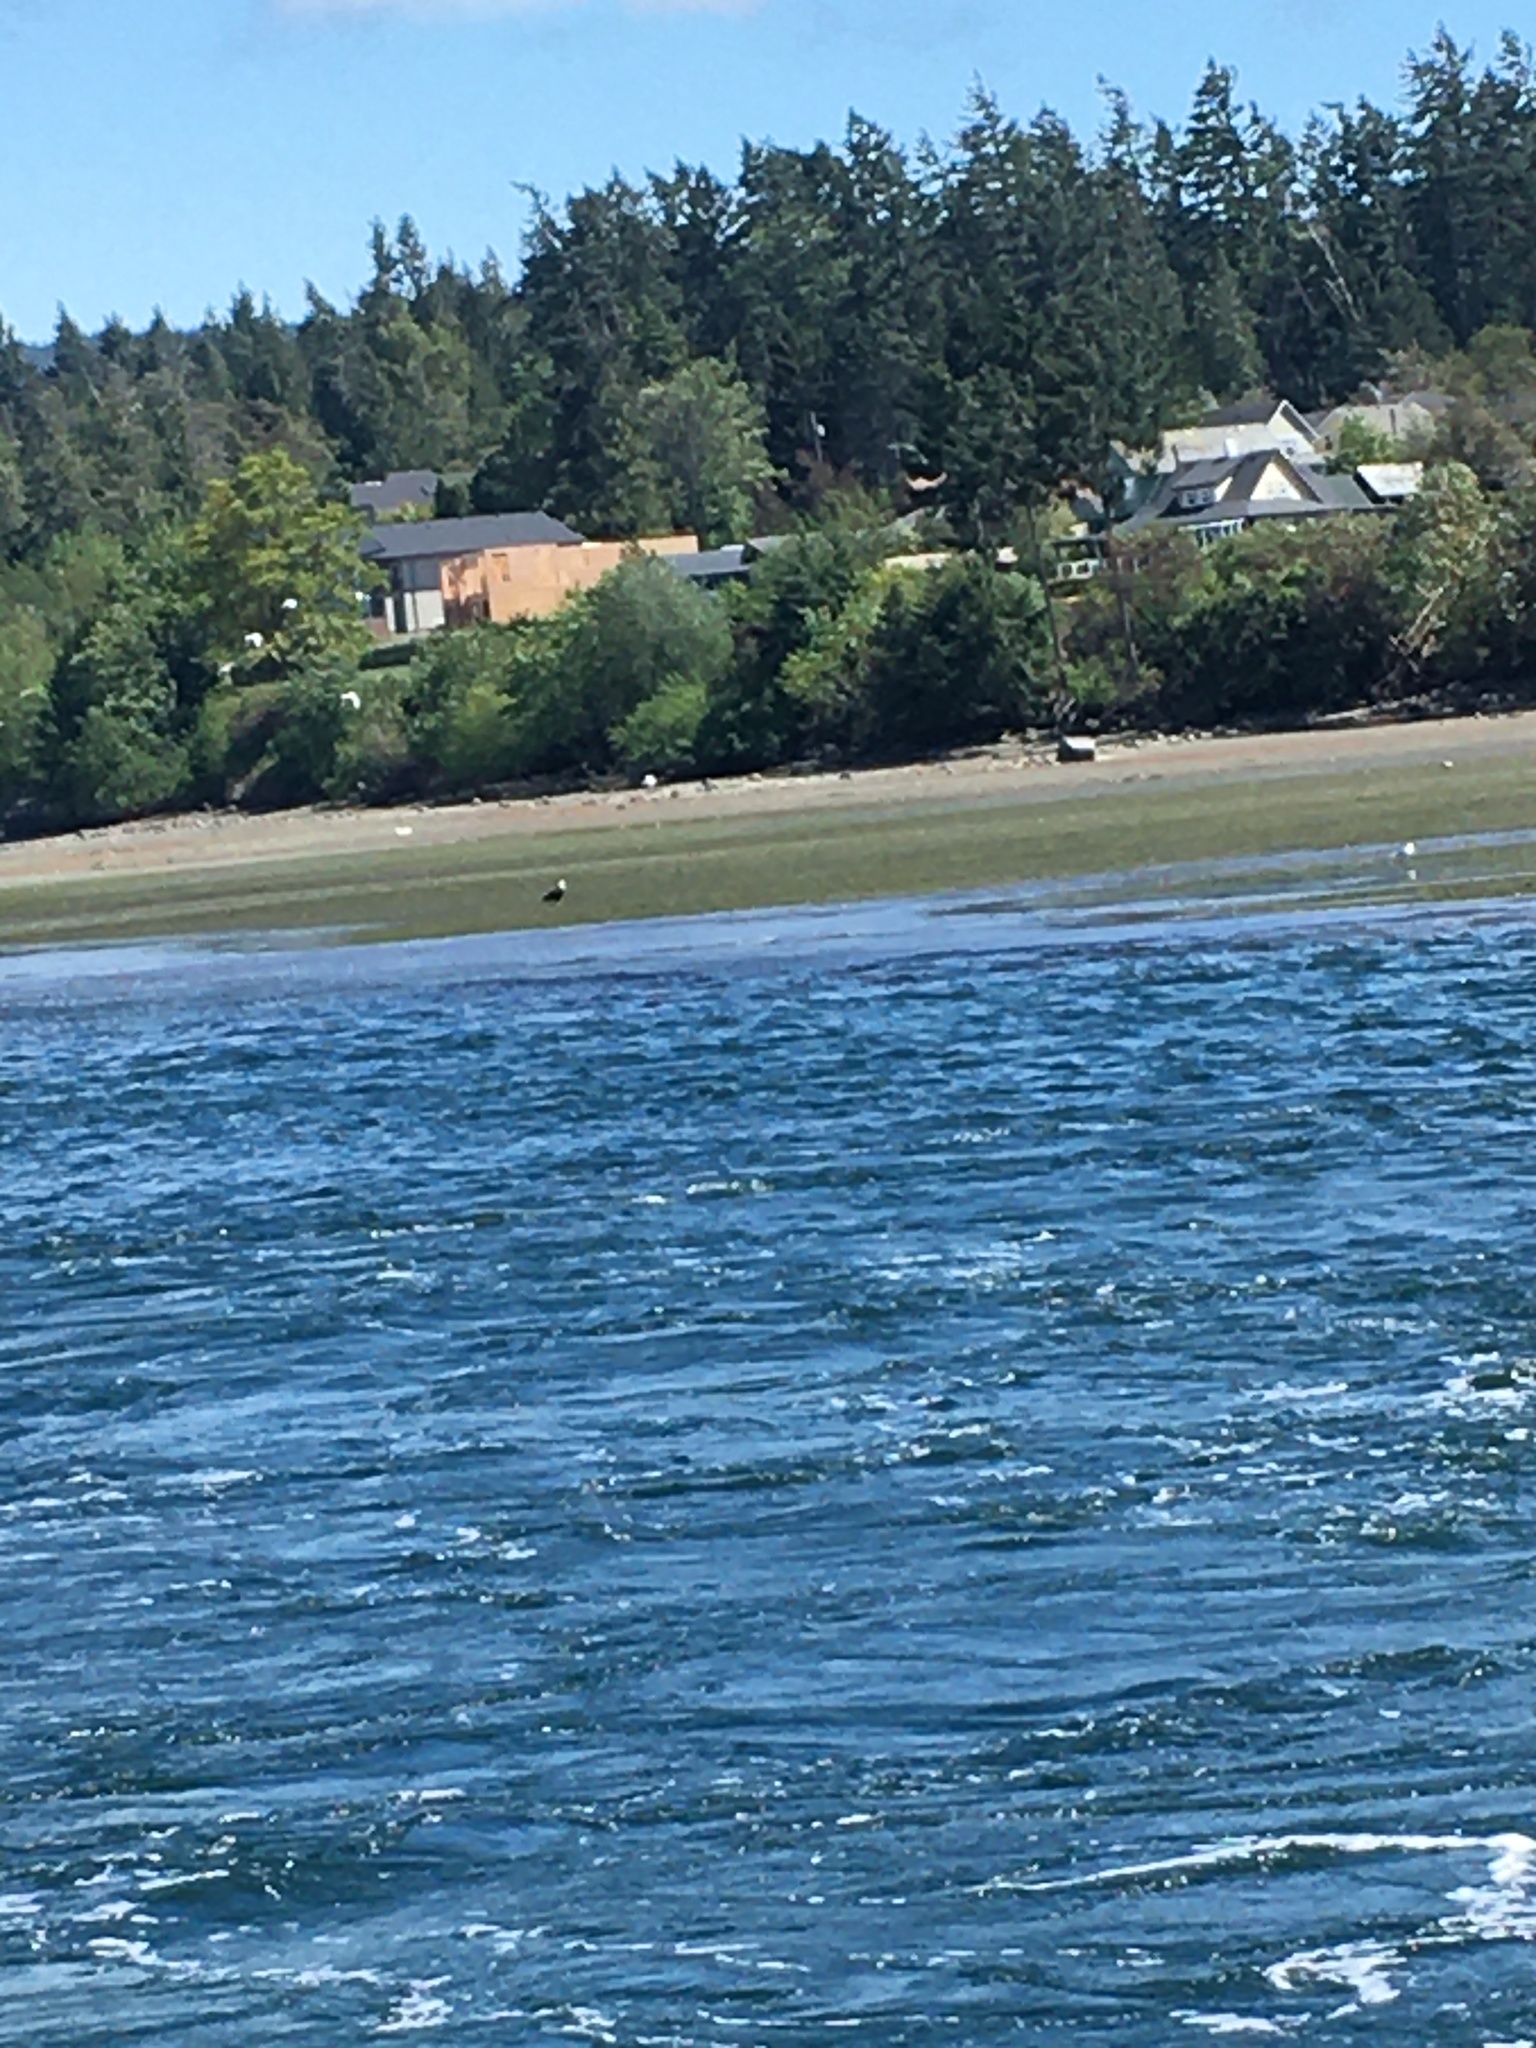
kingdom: Animalia
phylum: Chordata
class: Aves
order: Accipitriformes
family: Accipitridae
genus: Haliaeetus
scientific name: Haliaeetus leucocephalus
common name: Bald eagle
